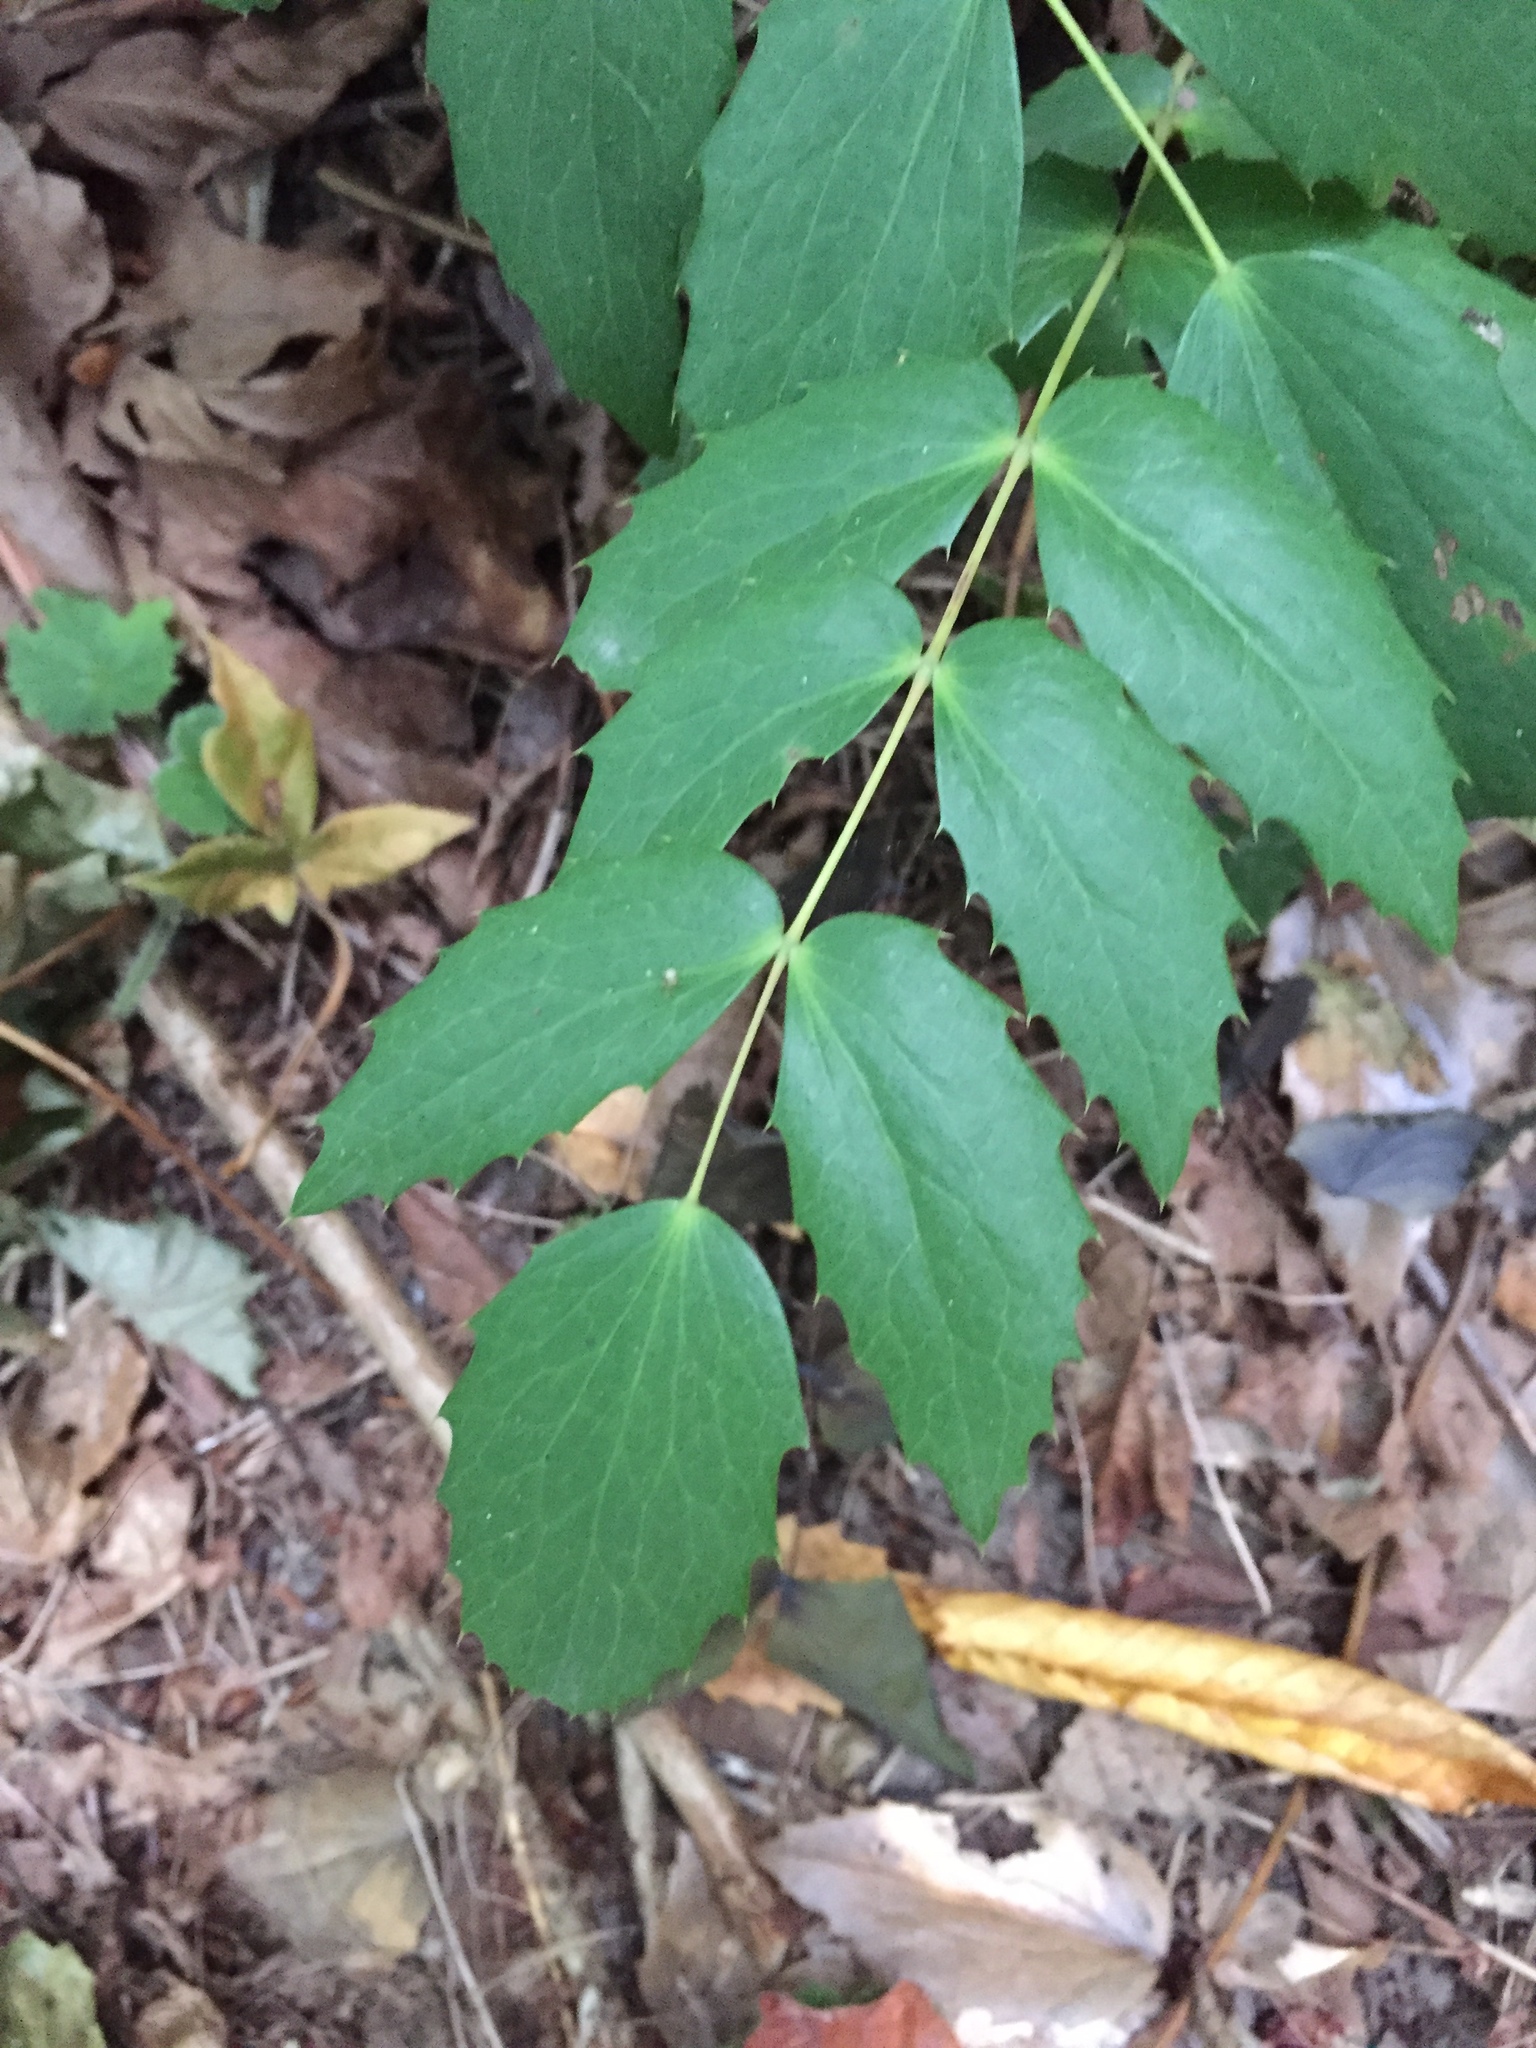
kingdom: Plantae
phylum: Tracheophyta
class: Magnoliopsida
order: Ranunculales
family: Berberidaceae
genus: Mahonia
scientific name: Mahonia nervosa
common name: Cascade oregon-grape
